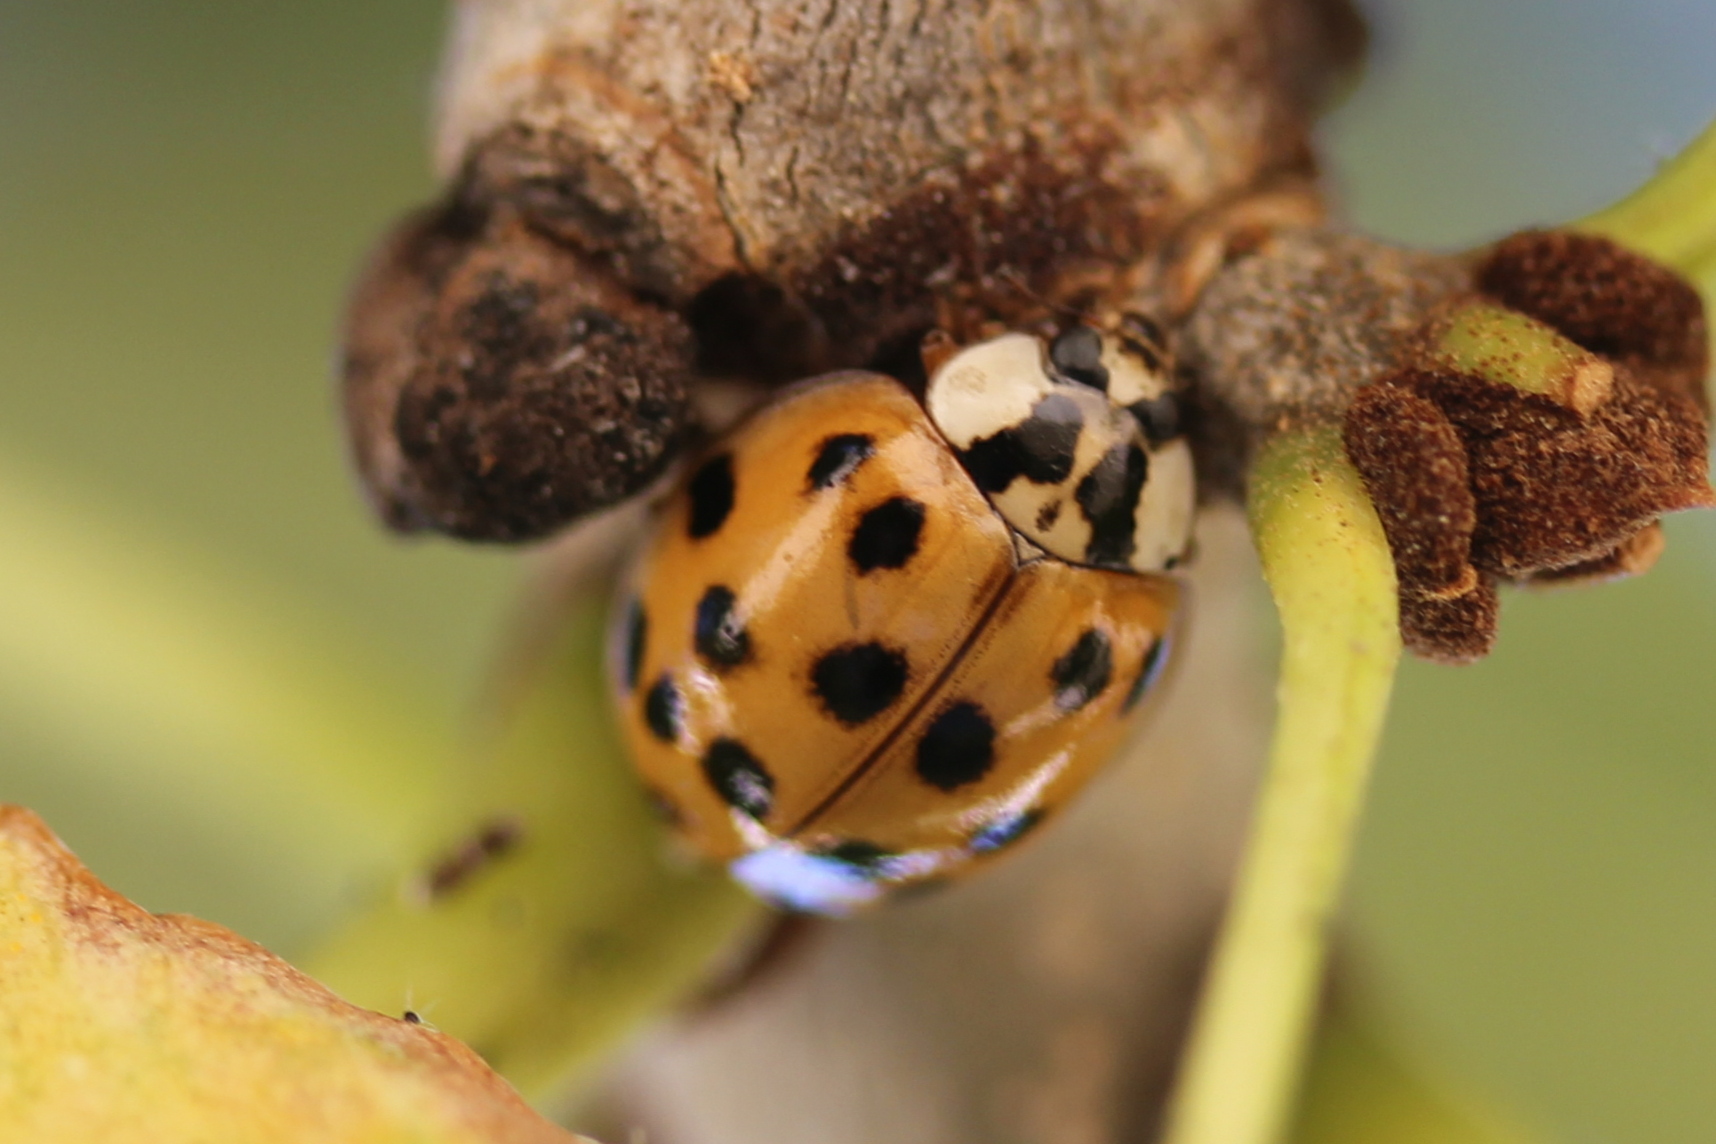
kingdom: Animalia
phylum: Arthropoda
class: Insecta
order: Coleoptera
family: Coccinellidae
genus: Harmonia
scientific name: Harmonia axyridis
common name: Harlequin ladybird
